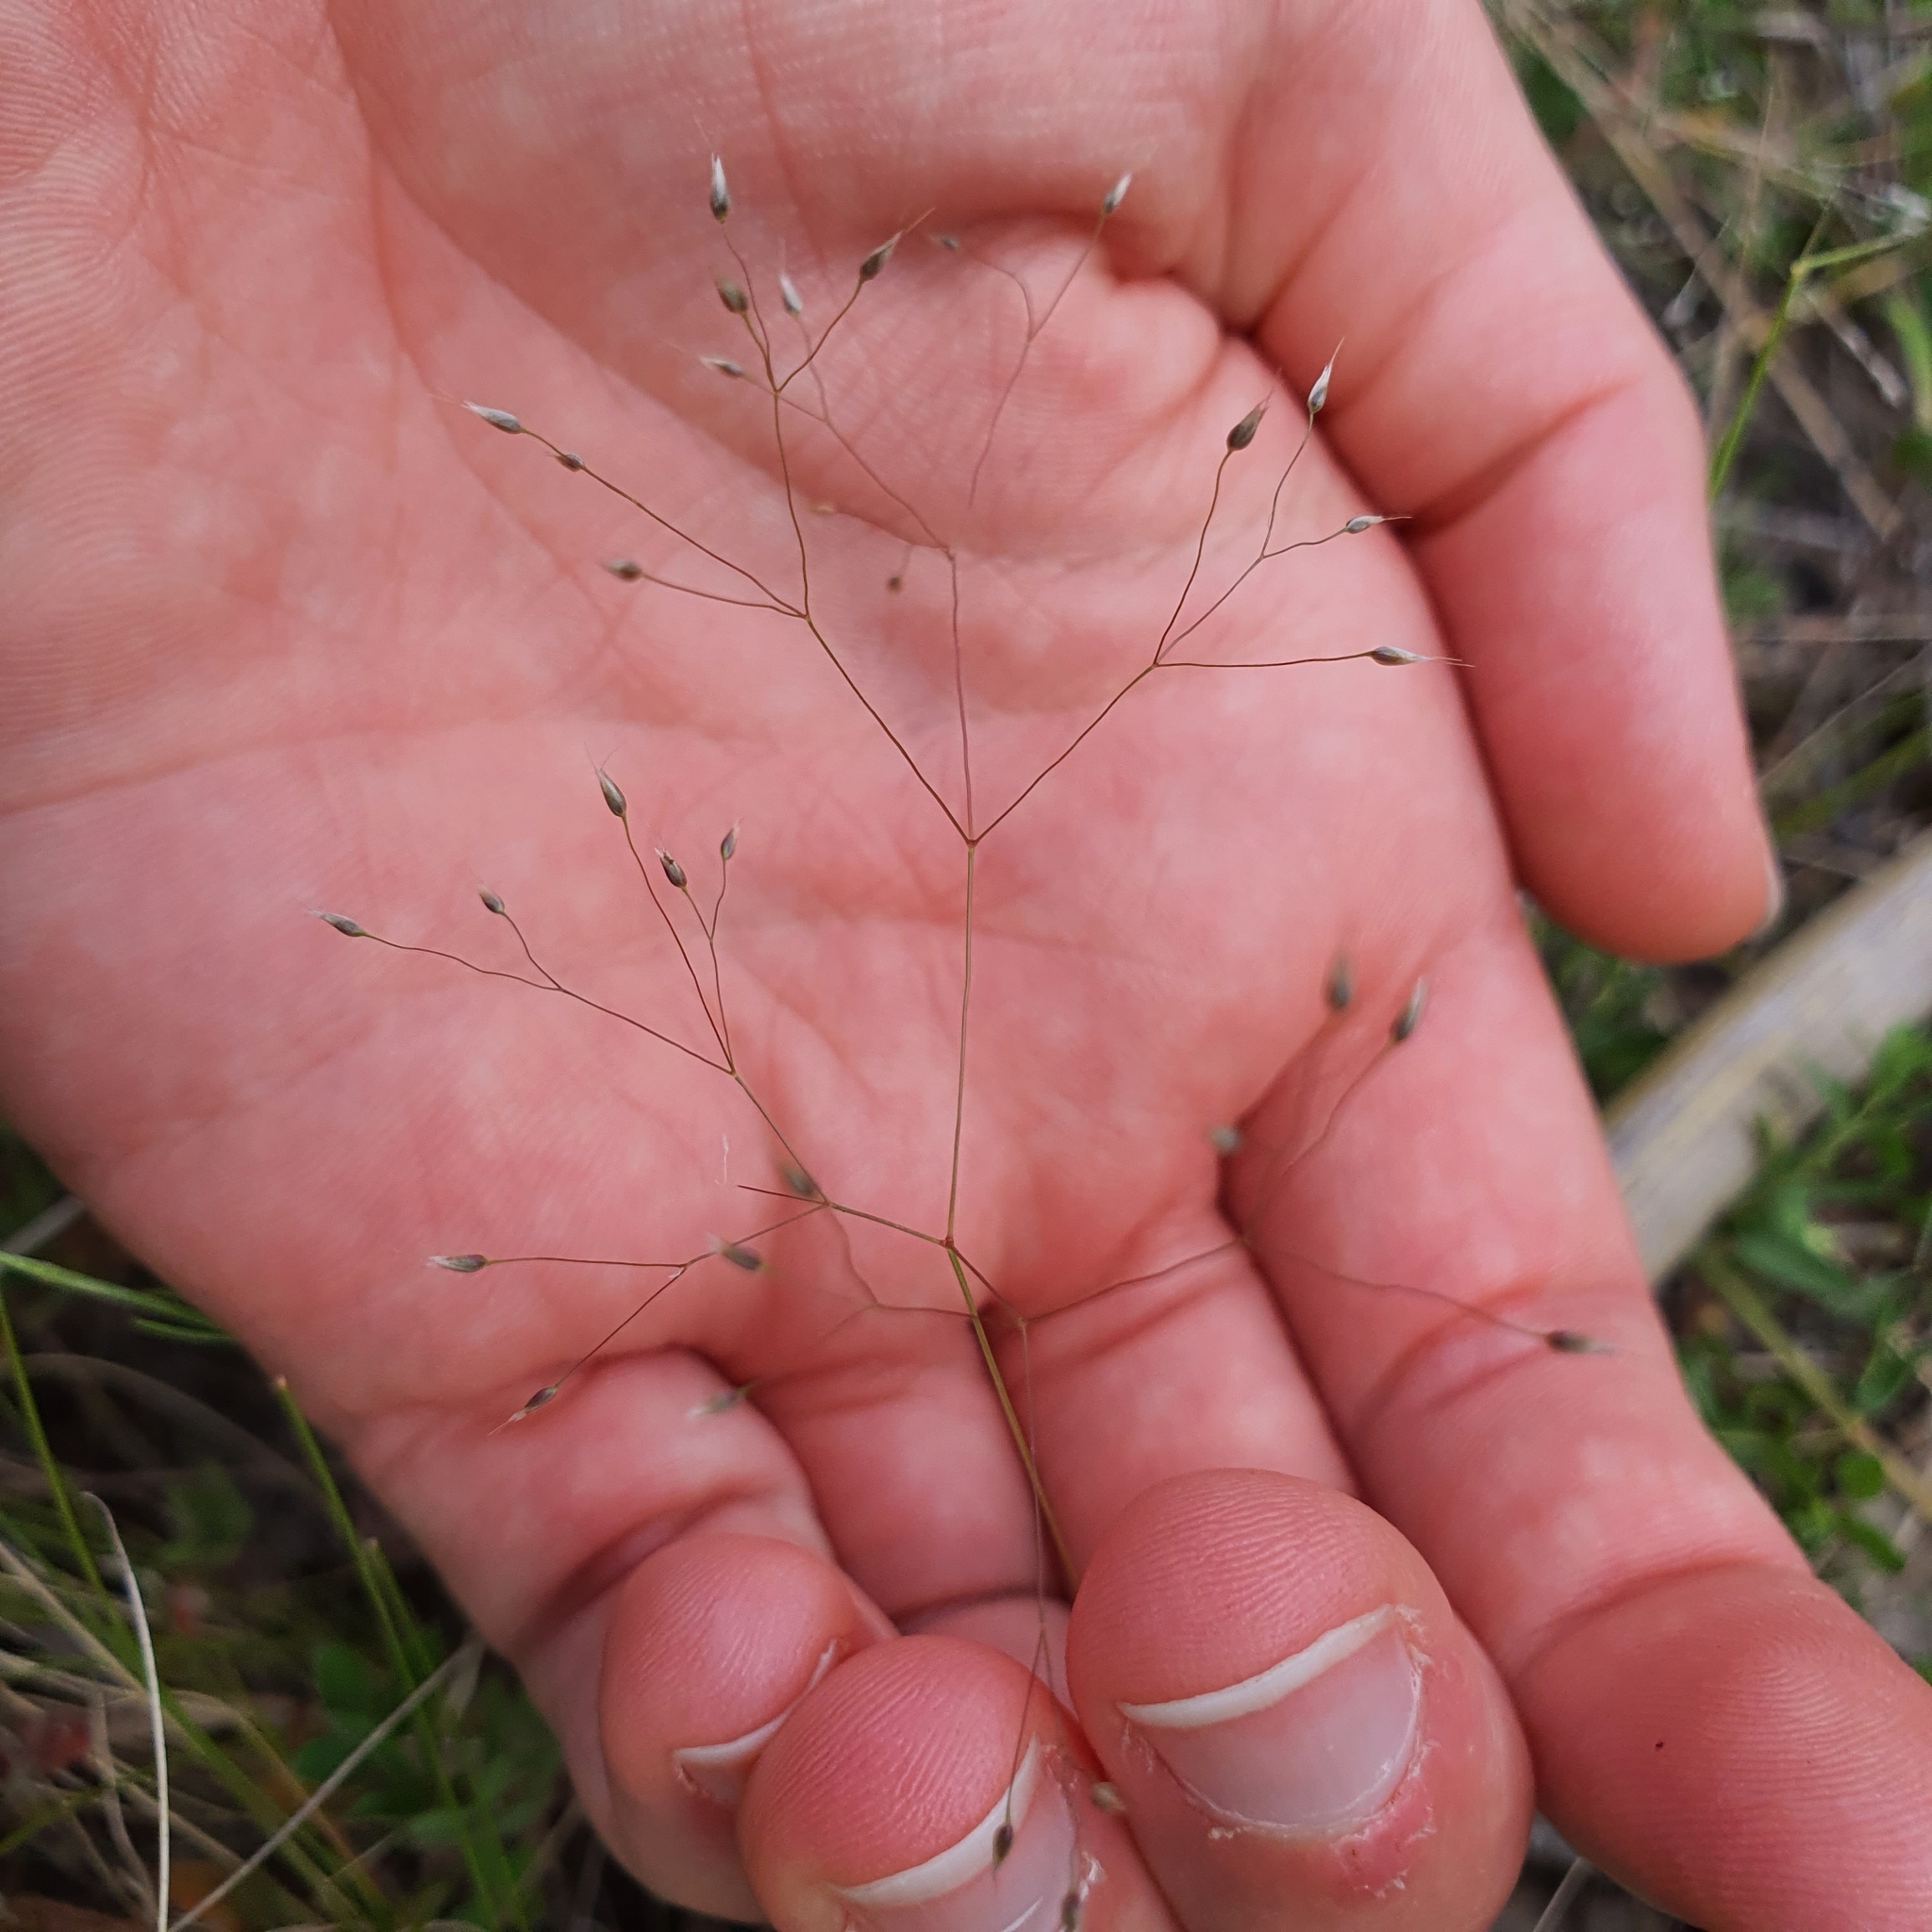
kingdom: Plantae
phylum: Tracheophyta
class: Liliopsida
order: Poales
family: Poaceae
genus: Aira
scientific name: Aira elegans
